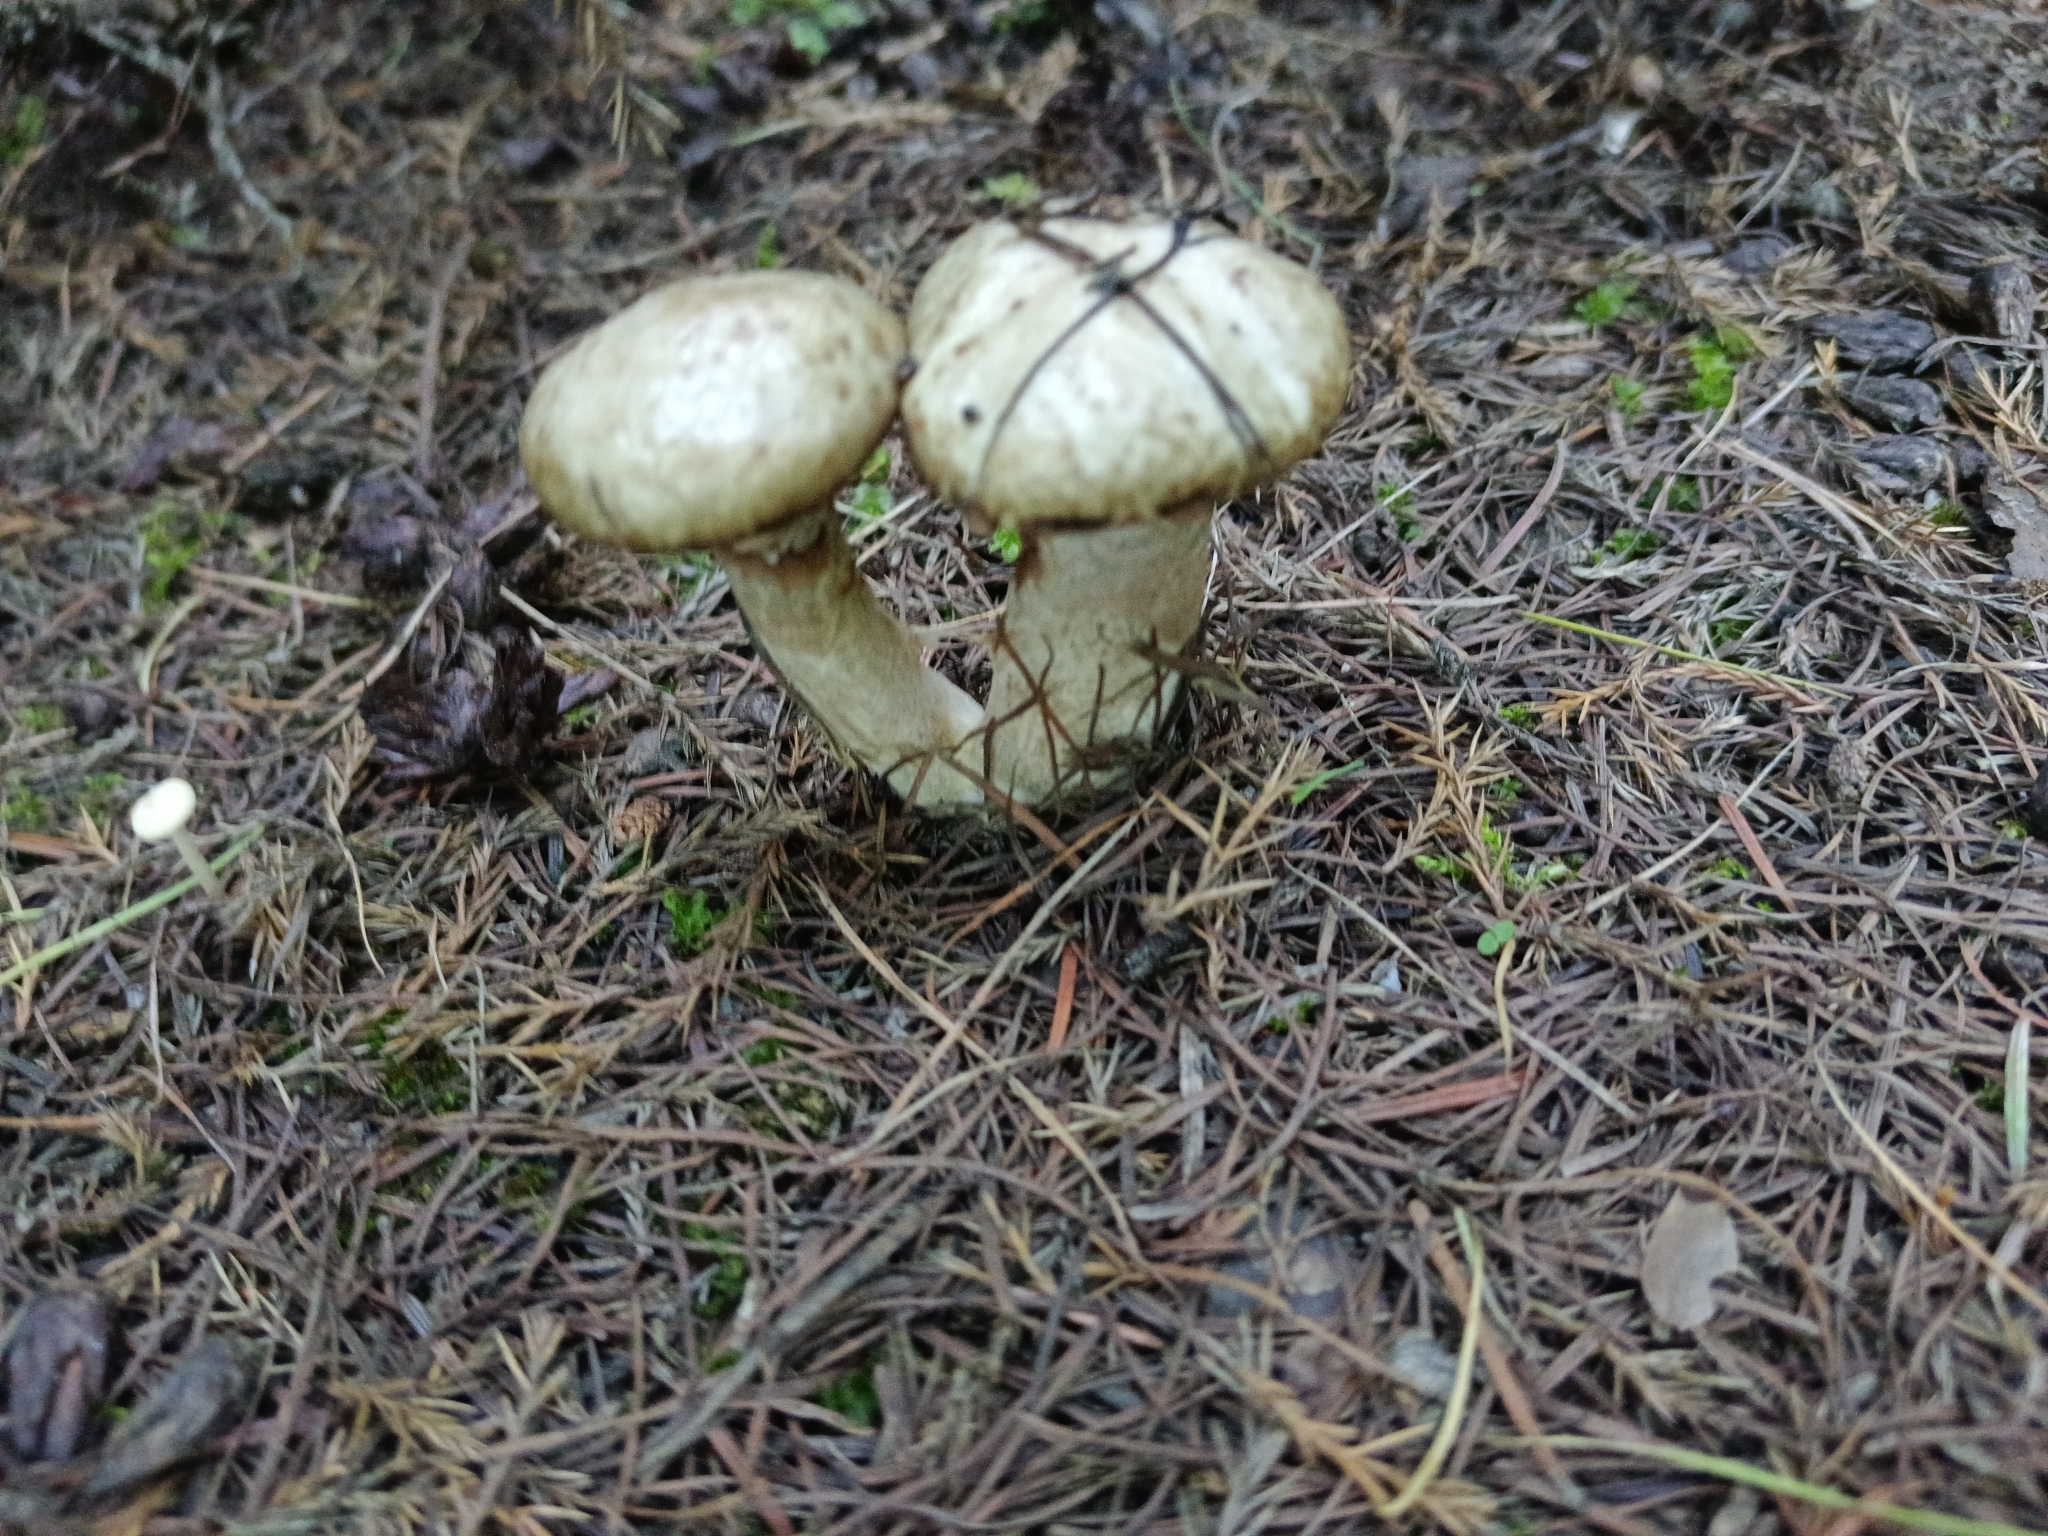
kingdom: Fungi
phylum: Basidiomycota
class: Agaricomycetes
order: Boletales
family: Suillaceae
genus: Suillus
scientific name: Suillus viscidus
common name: Sticky bolete
